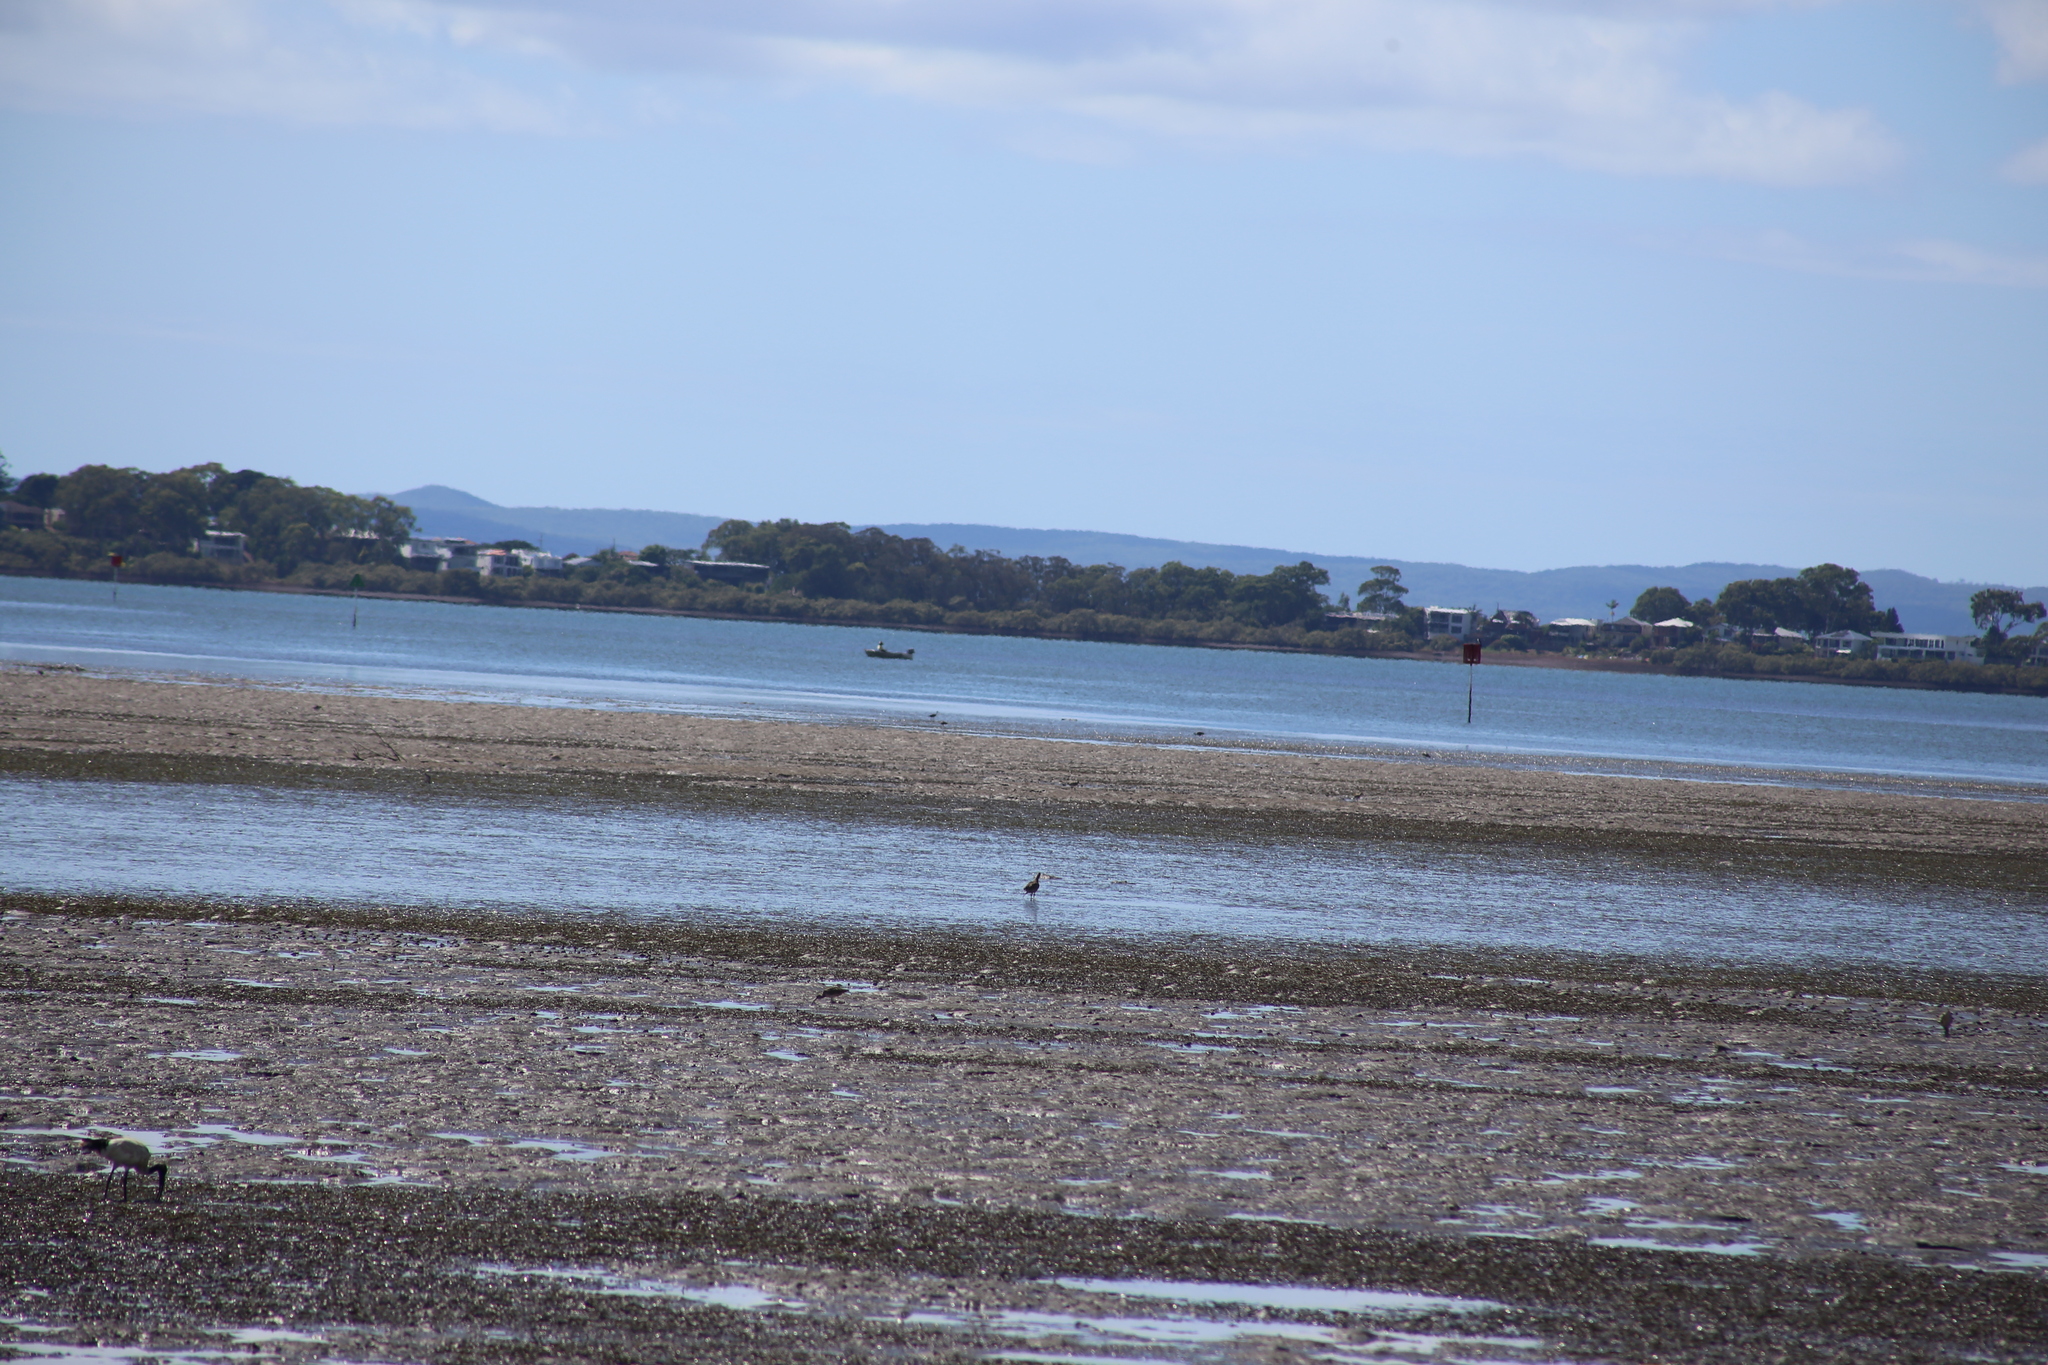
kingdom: Animalia
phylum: Chordata
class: Aves
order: Pelecaniformes
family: Threskiornithidae
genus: Threskiornis
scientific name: Threskiornis molucca
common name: Australian white ibis
